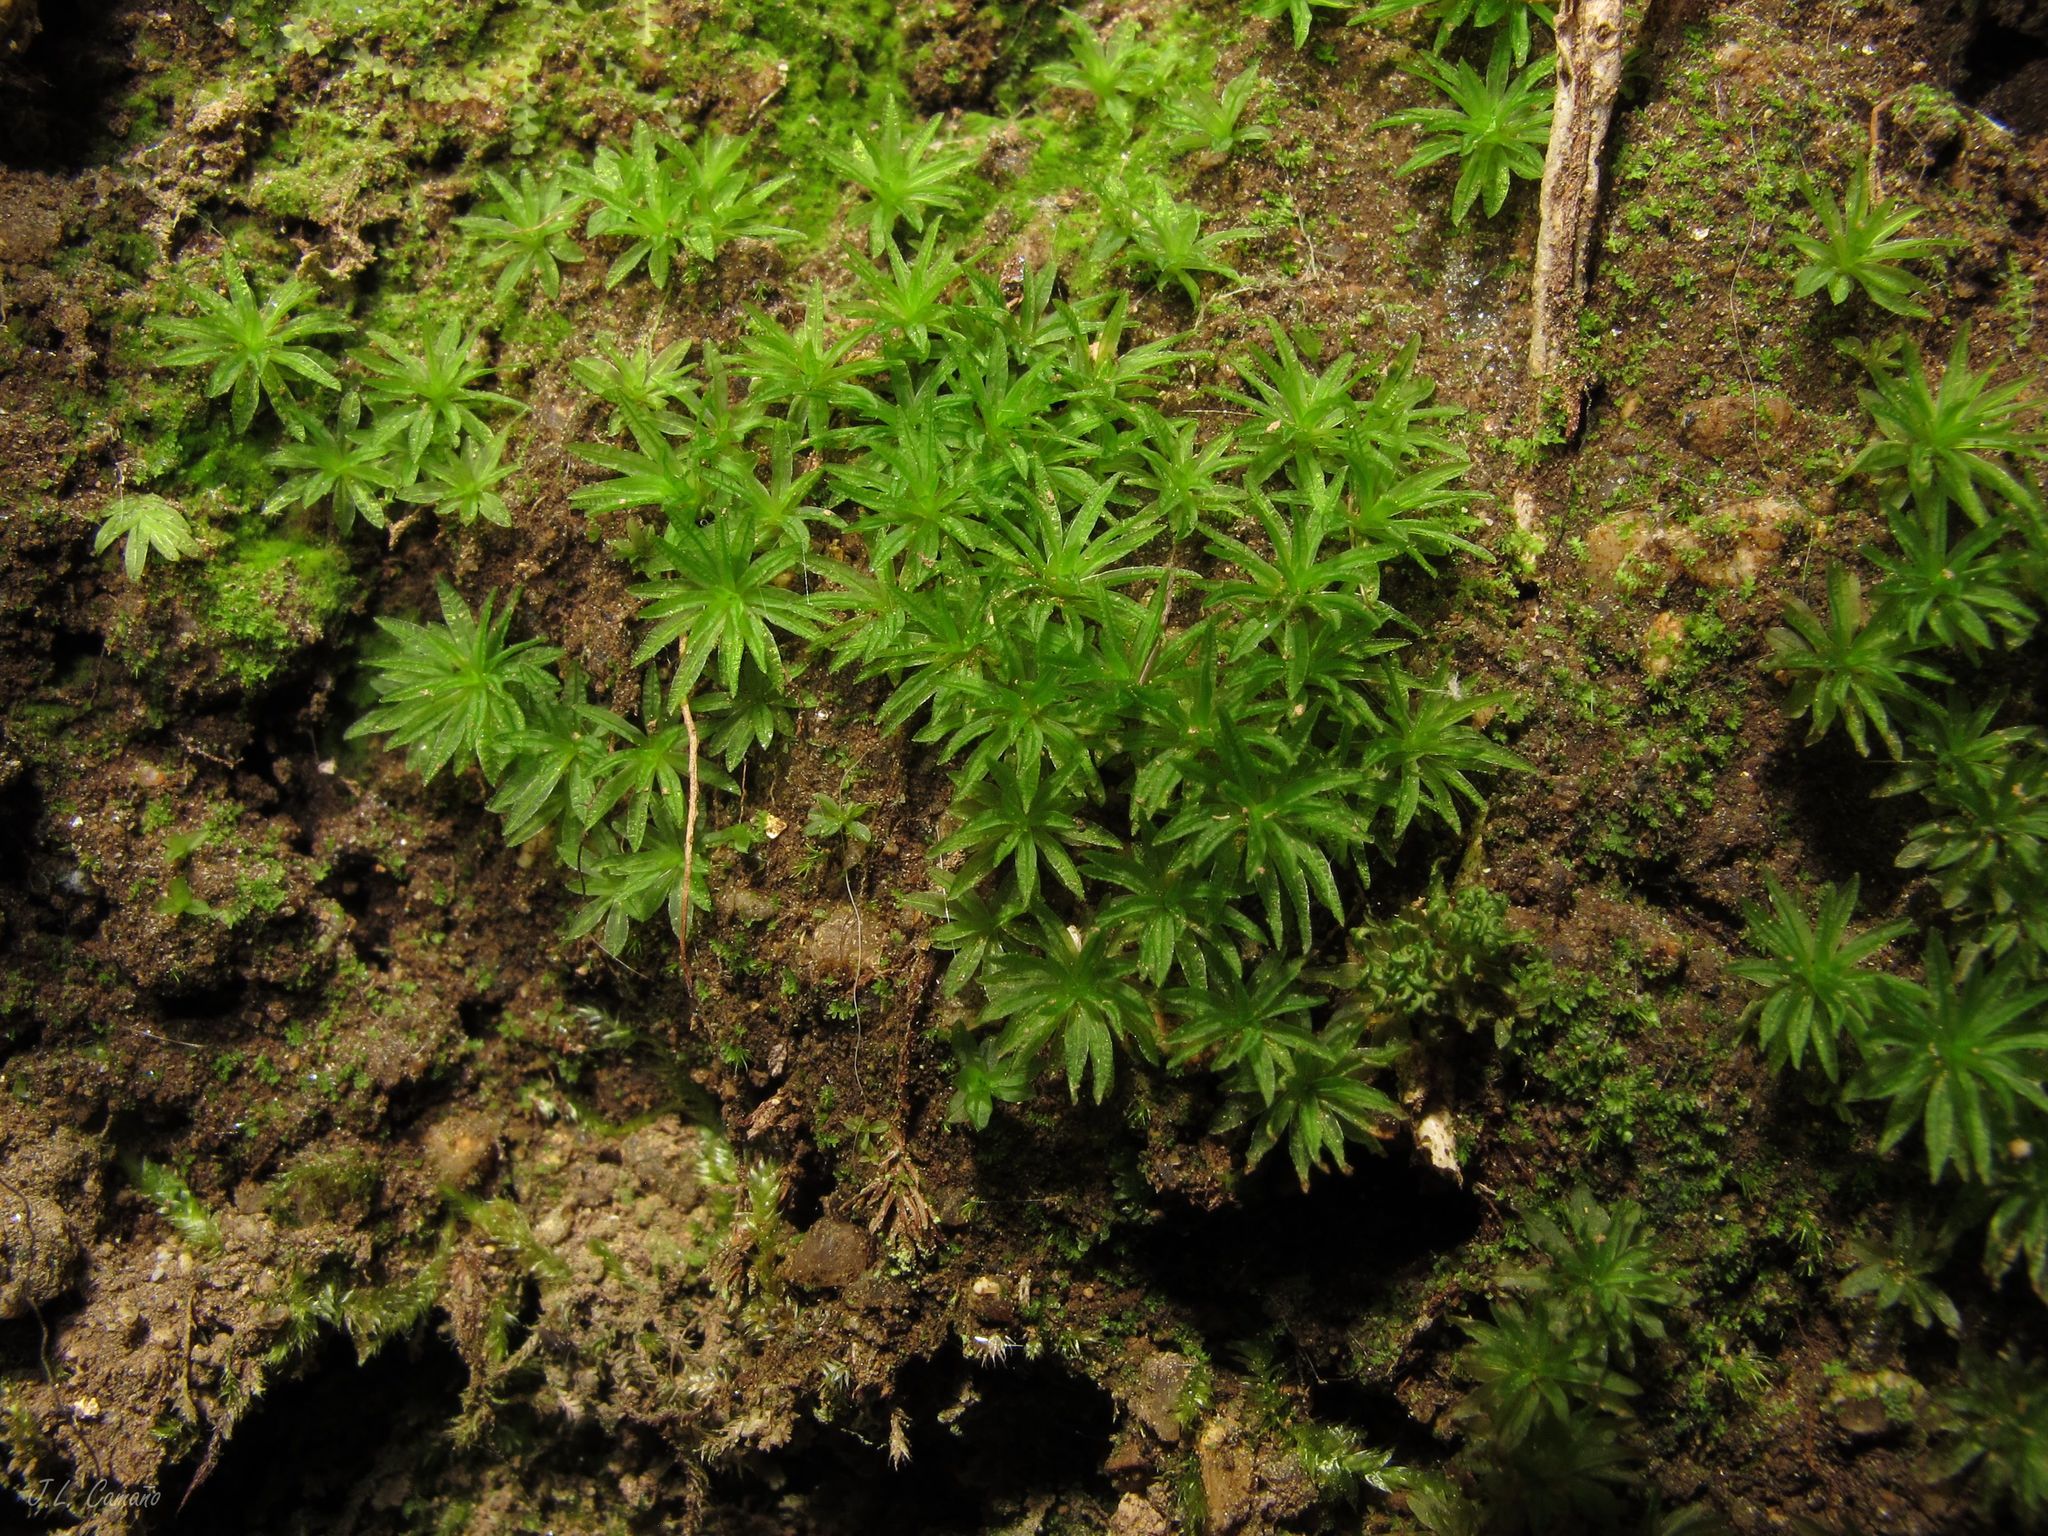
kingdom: Plantae
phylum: Bryophyta
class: Polytrichopsida
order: Polytrichales
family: Polytrichaceae
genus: Atrichum
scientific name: Atrichum undulatum
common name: Common smoothcap
